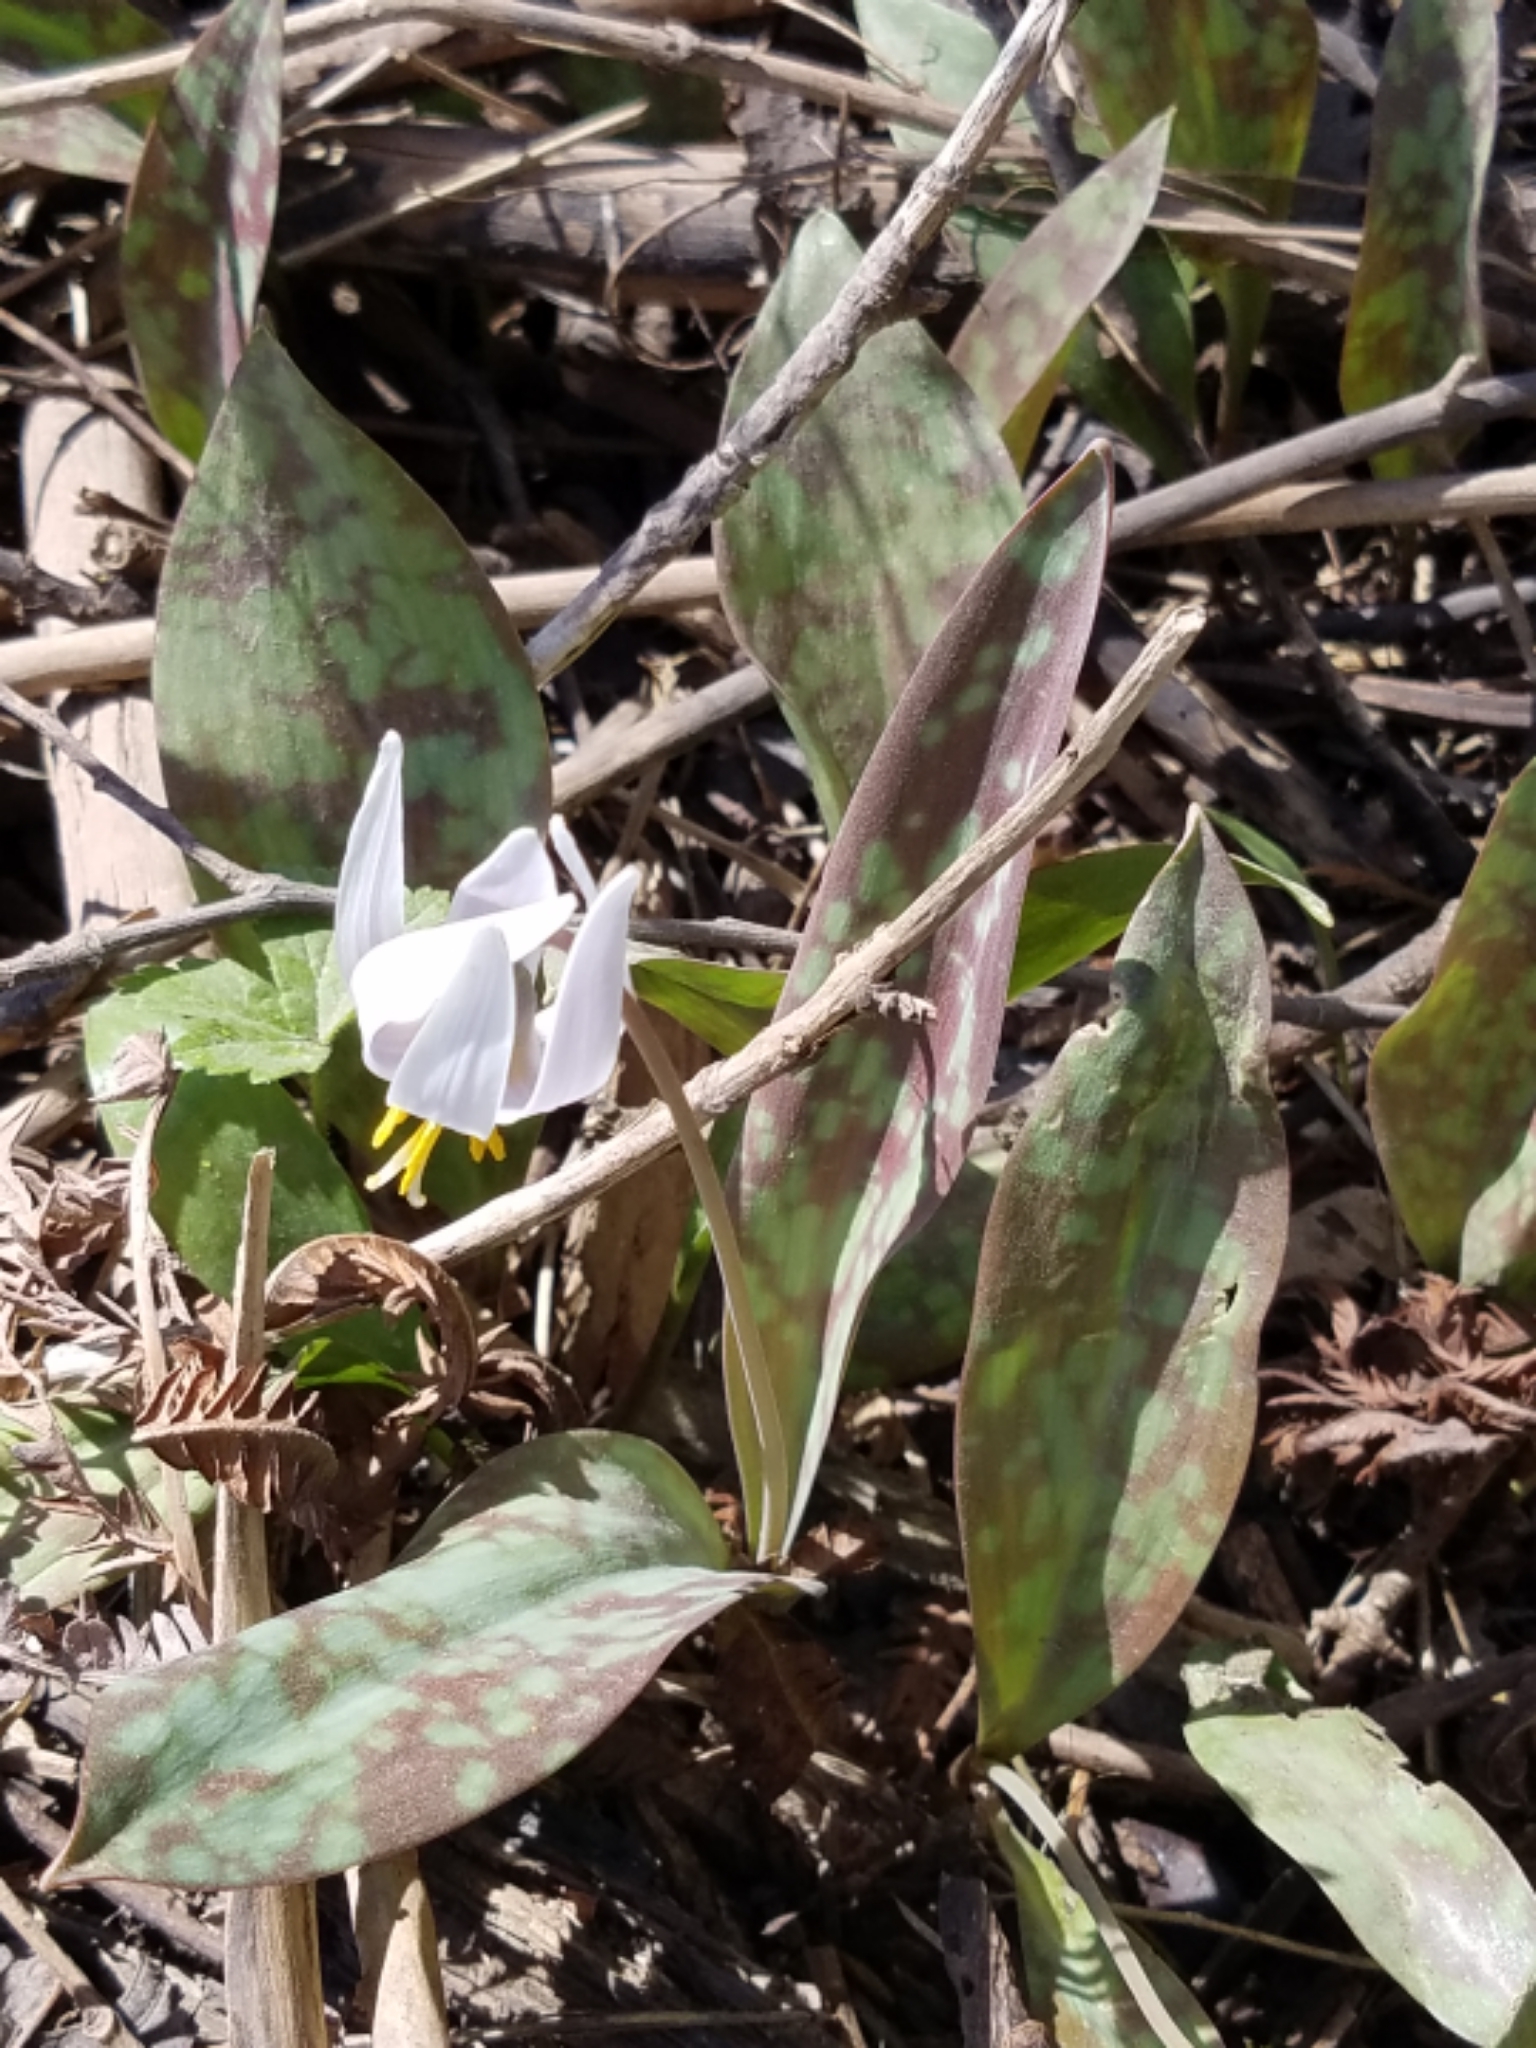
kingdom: Plantae
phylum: Tracheophyta
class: Liliopsida
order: Liliales
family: Liliaceae
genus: Erythronium
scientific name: Erythronium albidum
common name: White trout-lily
